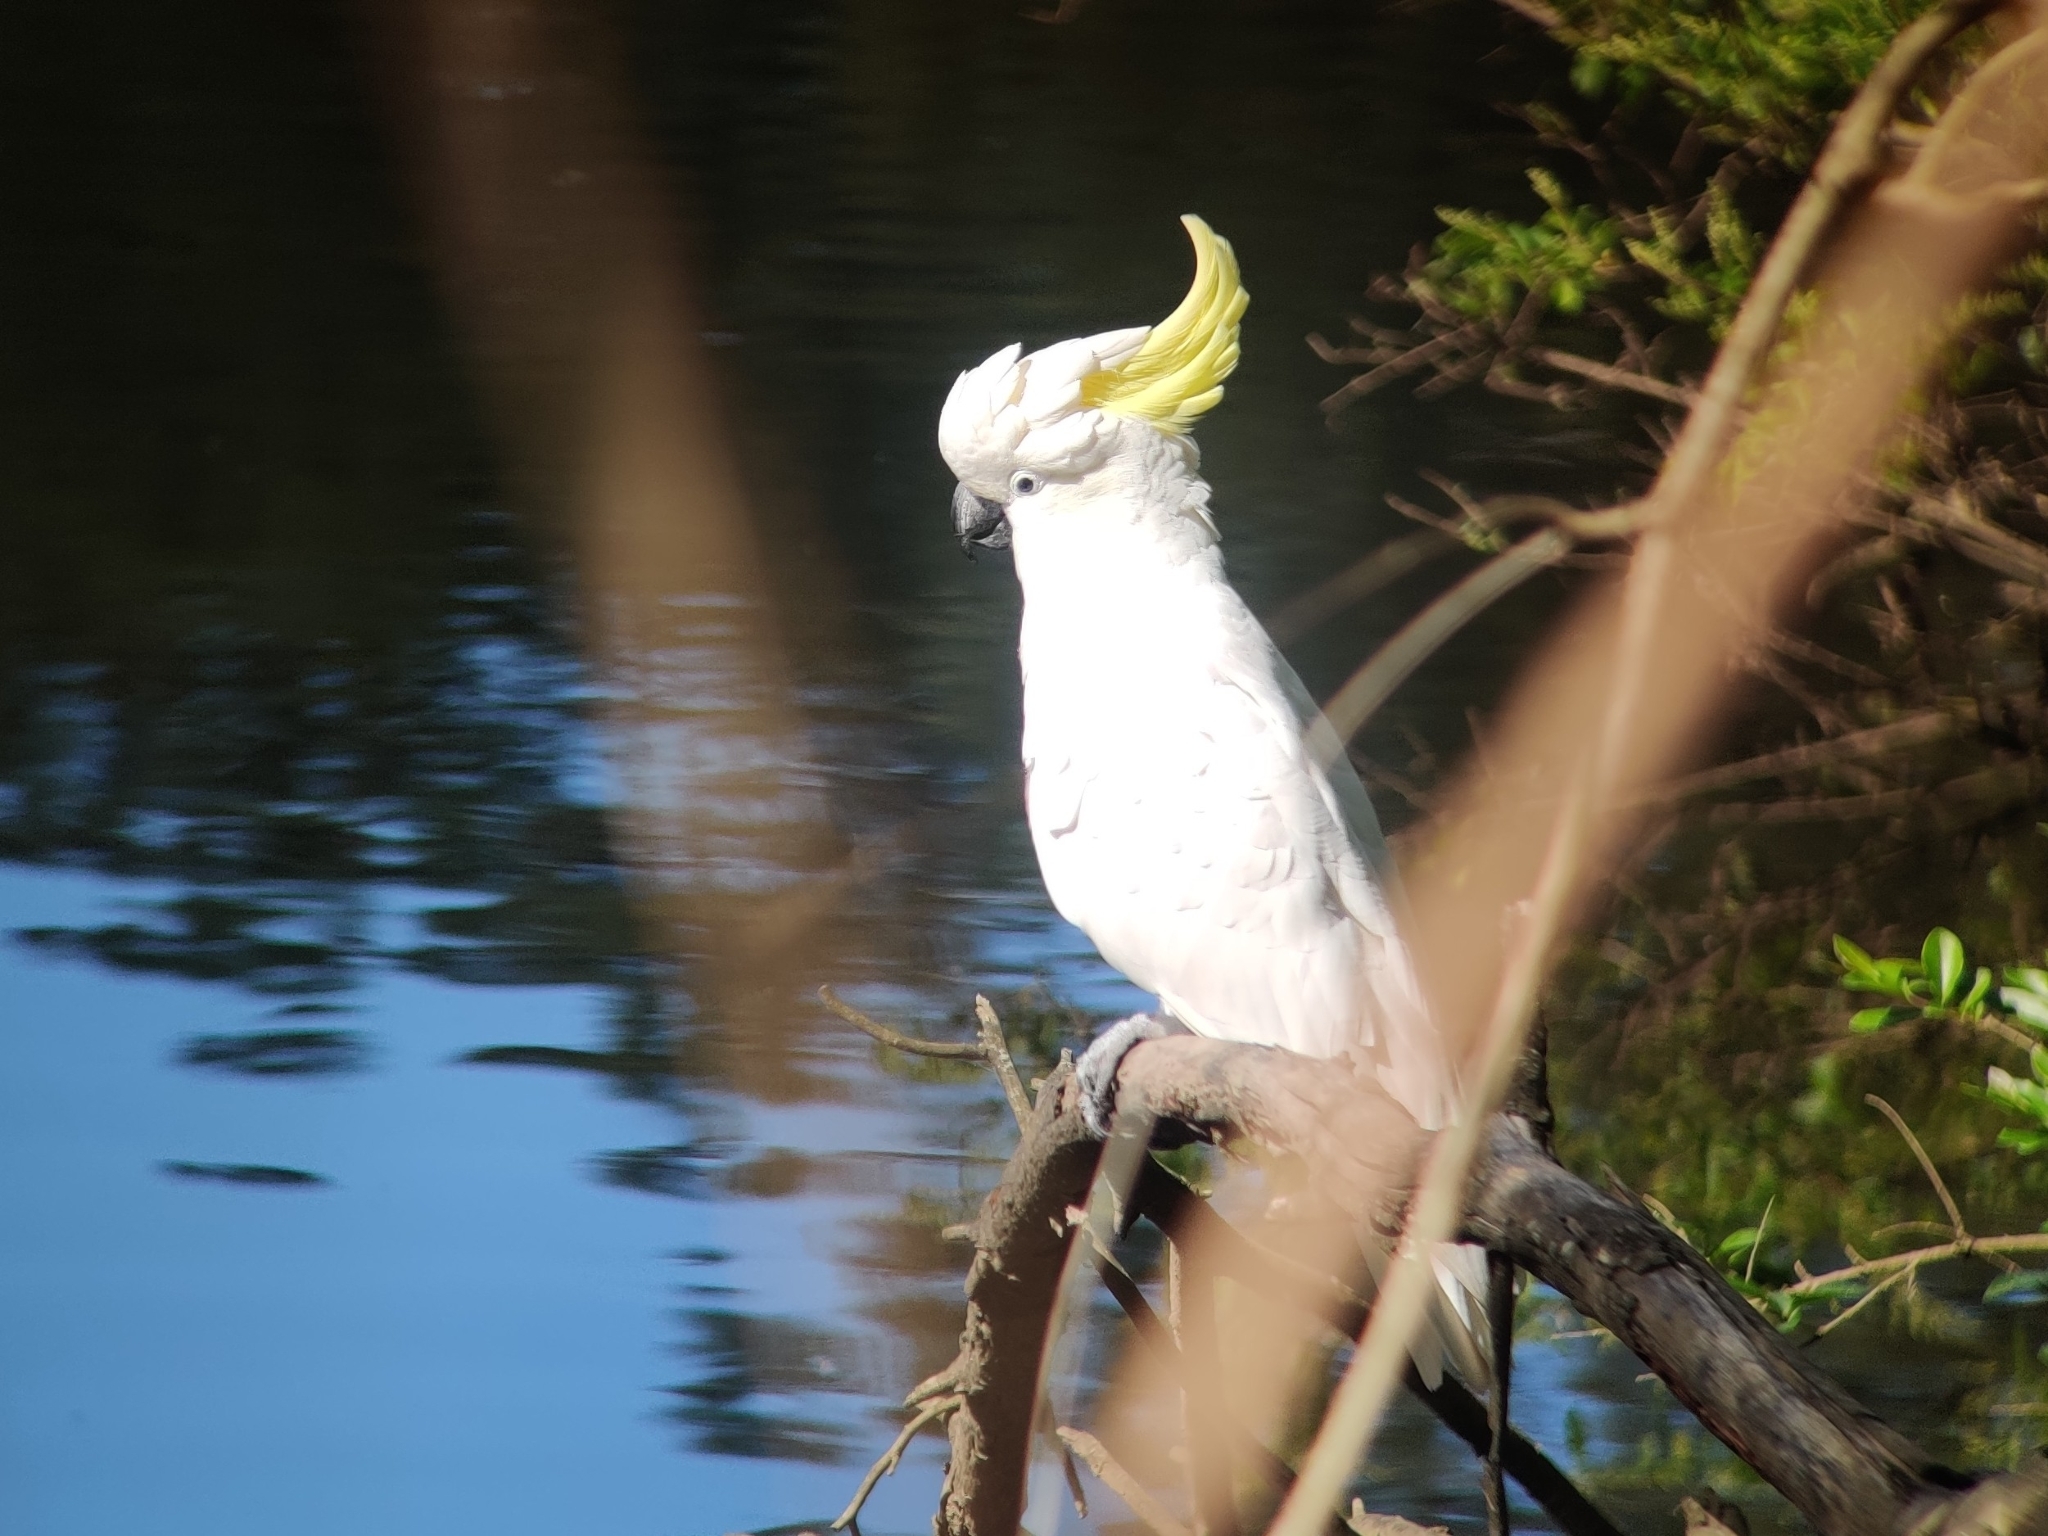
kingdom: Animalia
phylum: Chordata
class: Aves
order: Psittaciformes
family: Psittacidae
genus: Cacatua
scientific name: Cacatua galerita
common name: Sulphur-crested cockatoo
